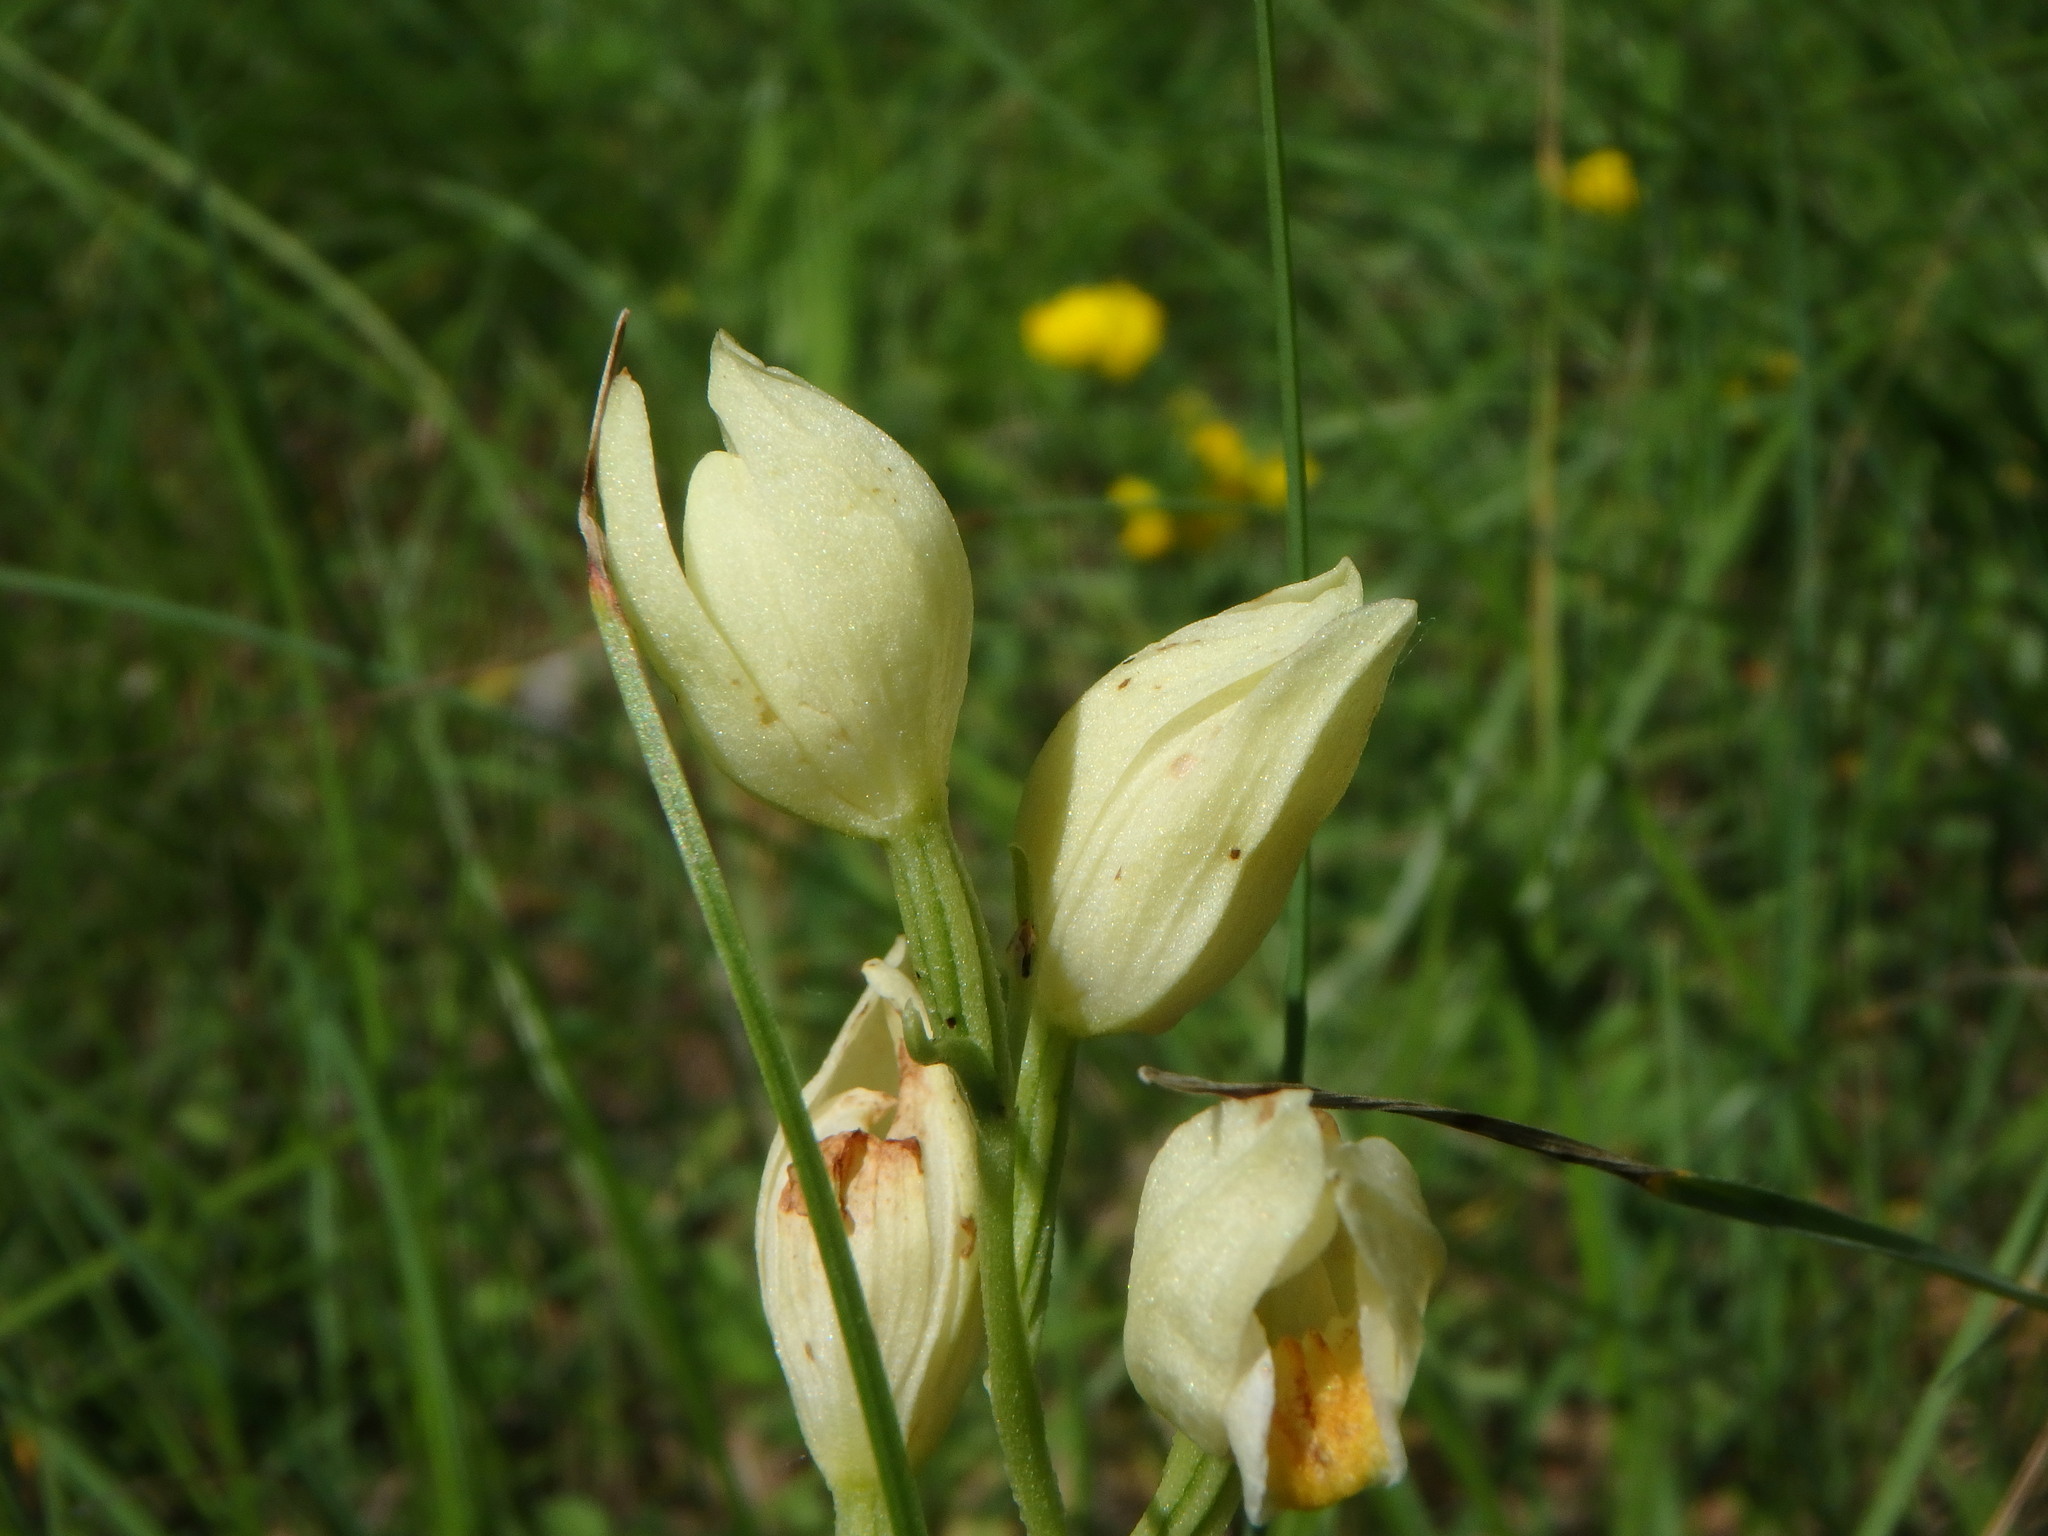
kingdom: Plantae
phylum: Tracheophyta
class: Liliopsida
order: Asparagales
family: Orchidaceae
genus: Cephalanthera
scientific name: Cephalanthera damasonium
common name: White helleborine
